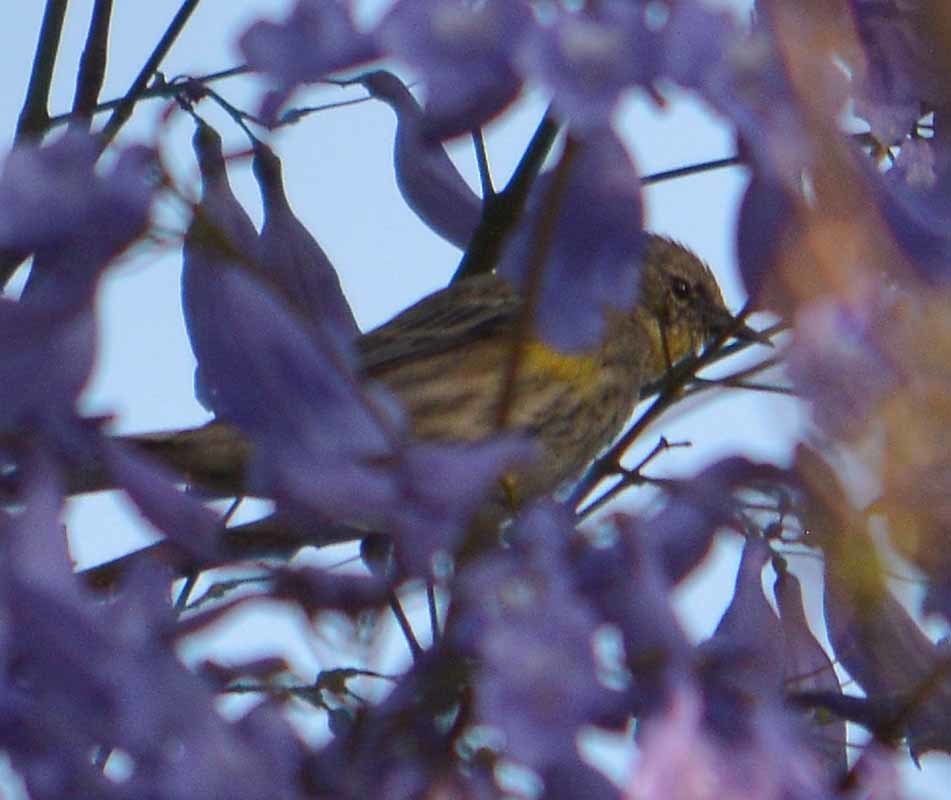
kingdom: Animalia
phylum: Chordata
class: Aves
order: Passeriformes
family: Parulidae
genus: Setophaga
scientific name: Setophaga coronata
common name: Myrtle warbler
